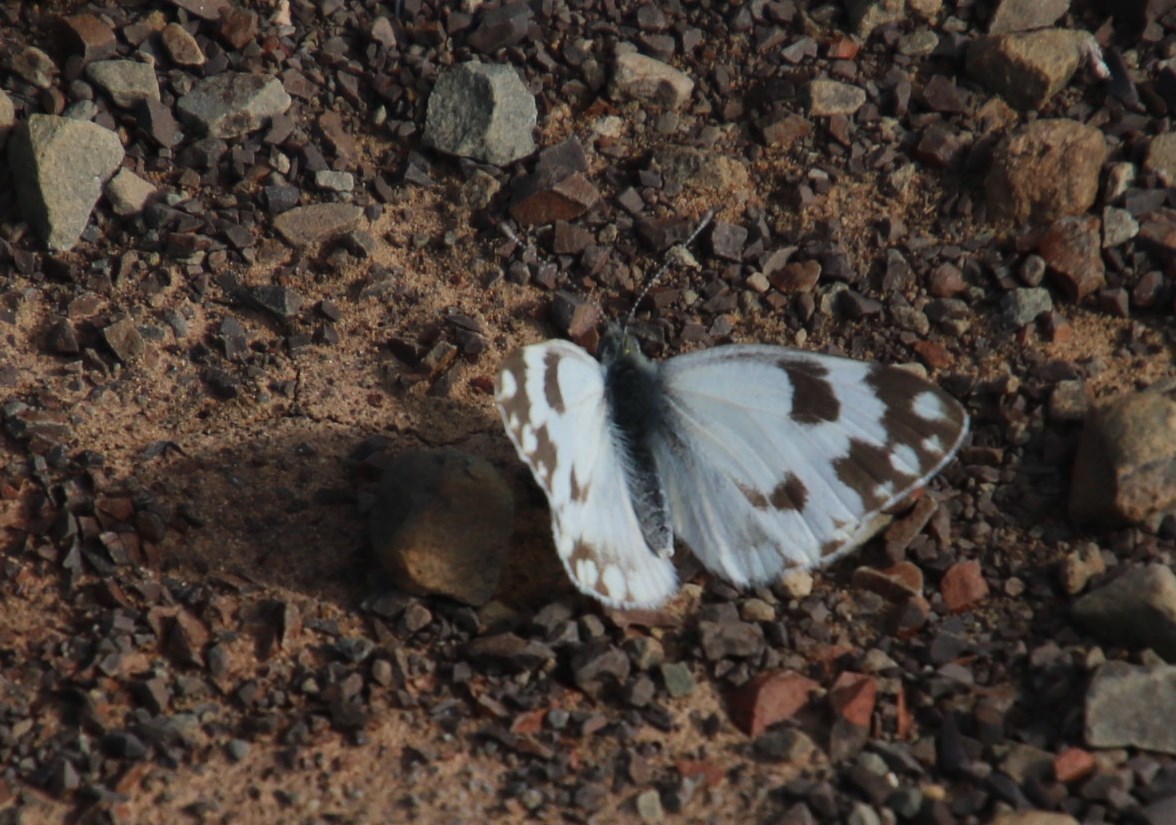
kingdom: Animalia
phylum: Arthropoda
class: Insecta
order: Lepidoptera
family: Pieridae
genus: Pontia
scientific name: Pontia helice
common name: Meadow white
